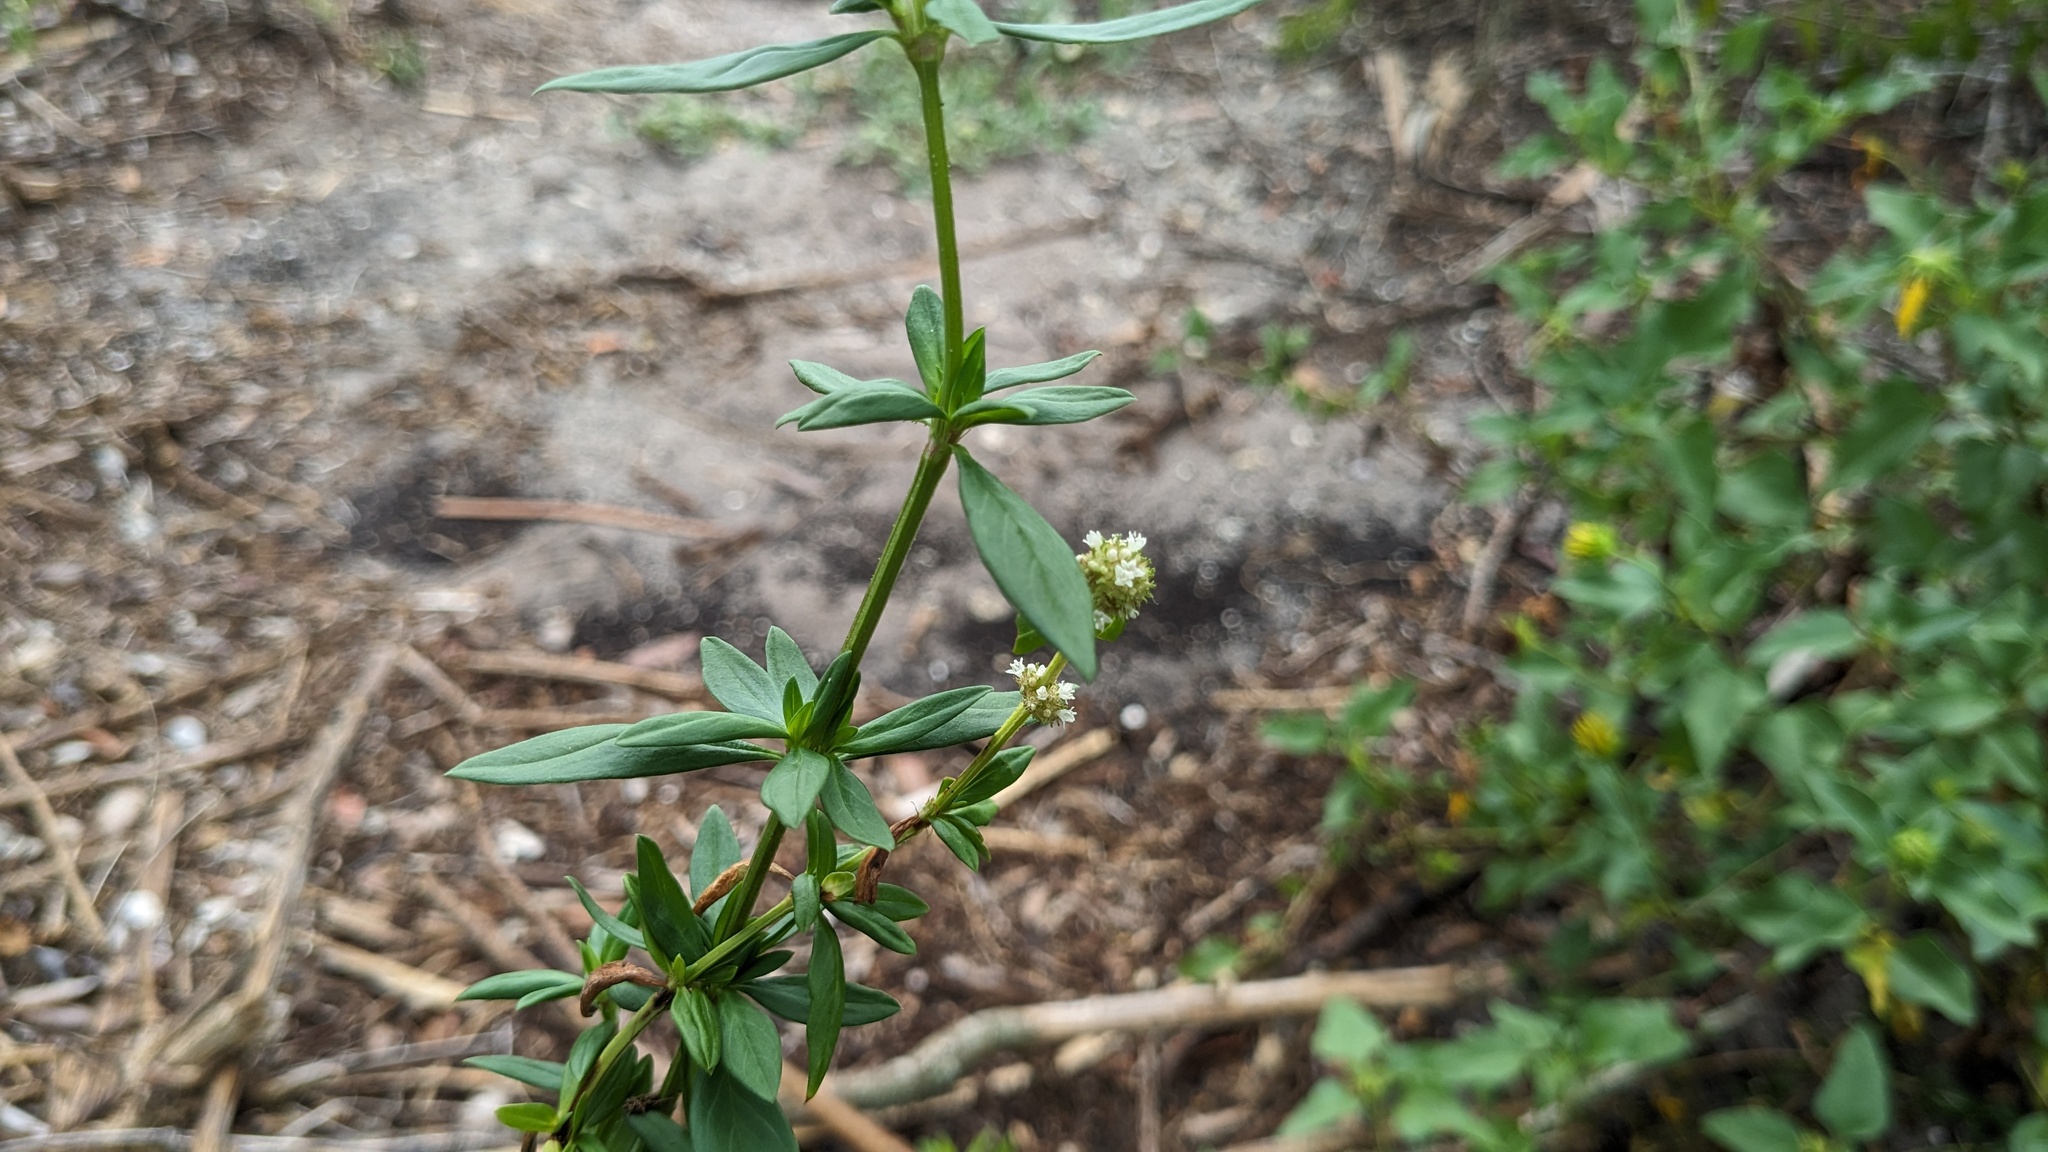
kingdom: Plantae
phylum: Tracheophyta
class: Magnoliopsida
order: Gentianales
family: Rubiaceae
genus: Spermacoce
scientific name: Spermacoce verticillata
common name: Shrubby false buttonweed
